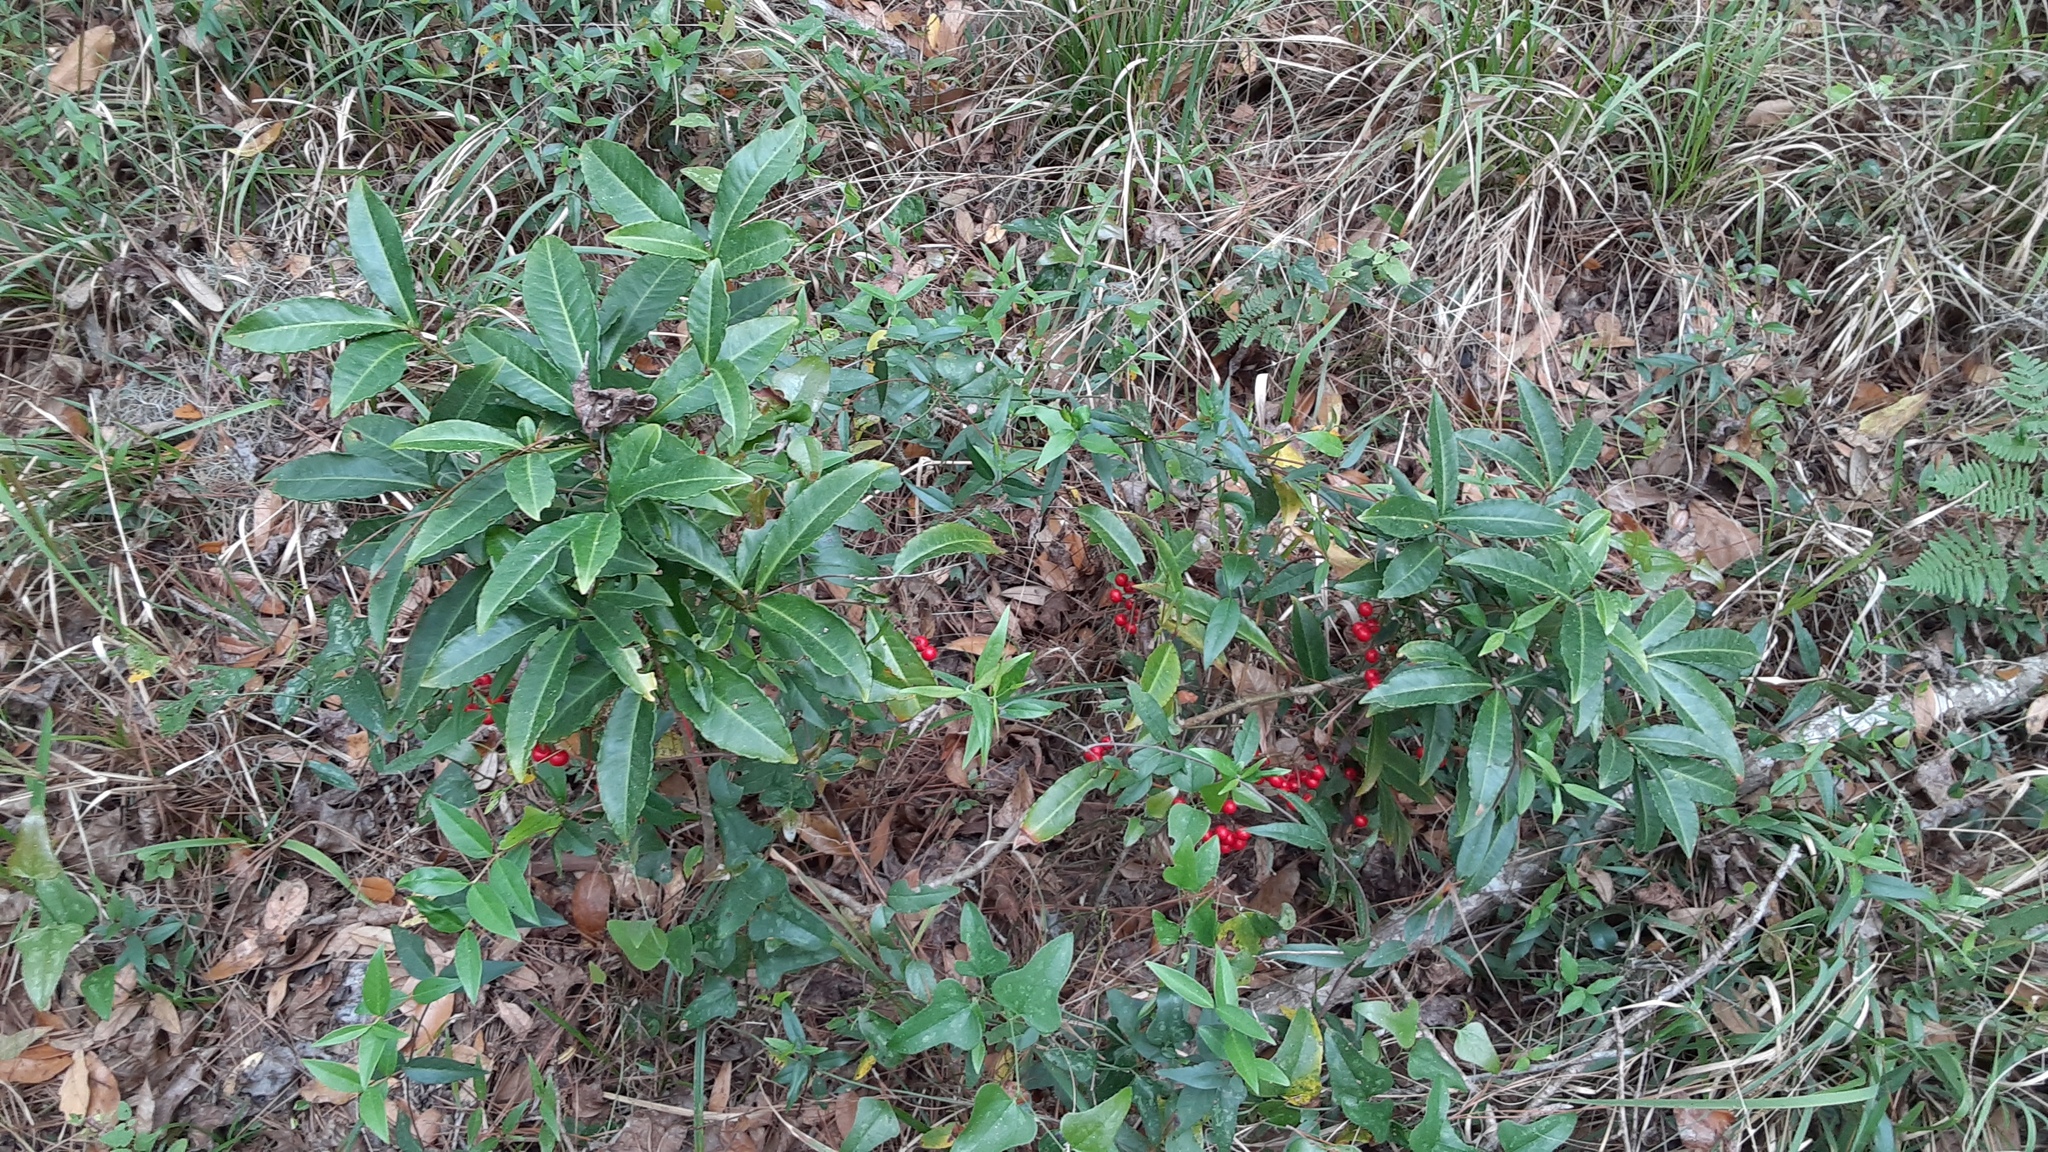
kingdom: Plantae
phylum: Tracheophyta
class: Magnoliopsida
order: Ericales
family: Primulaceae
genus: Ardisia
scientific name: Ardisia crenata
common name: Hen's eyes
